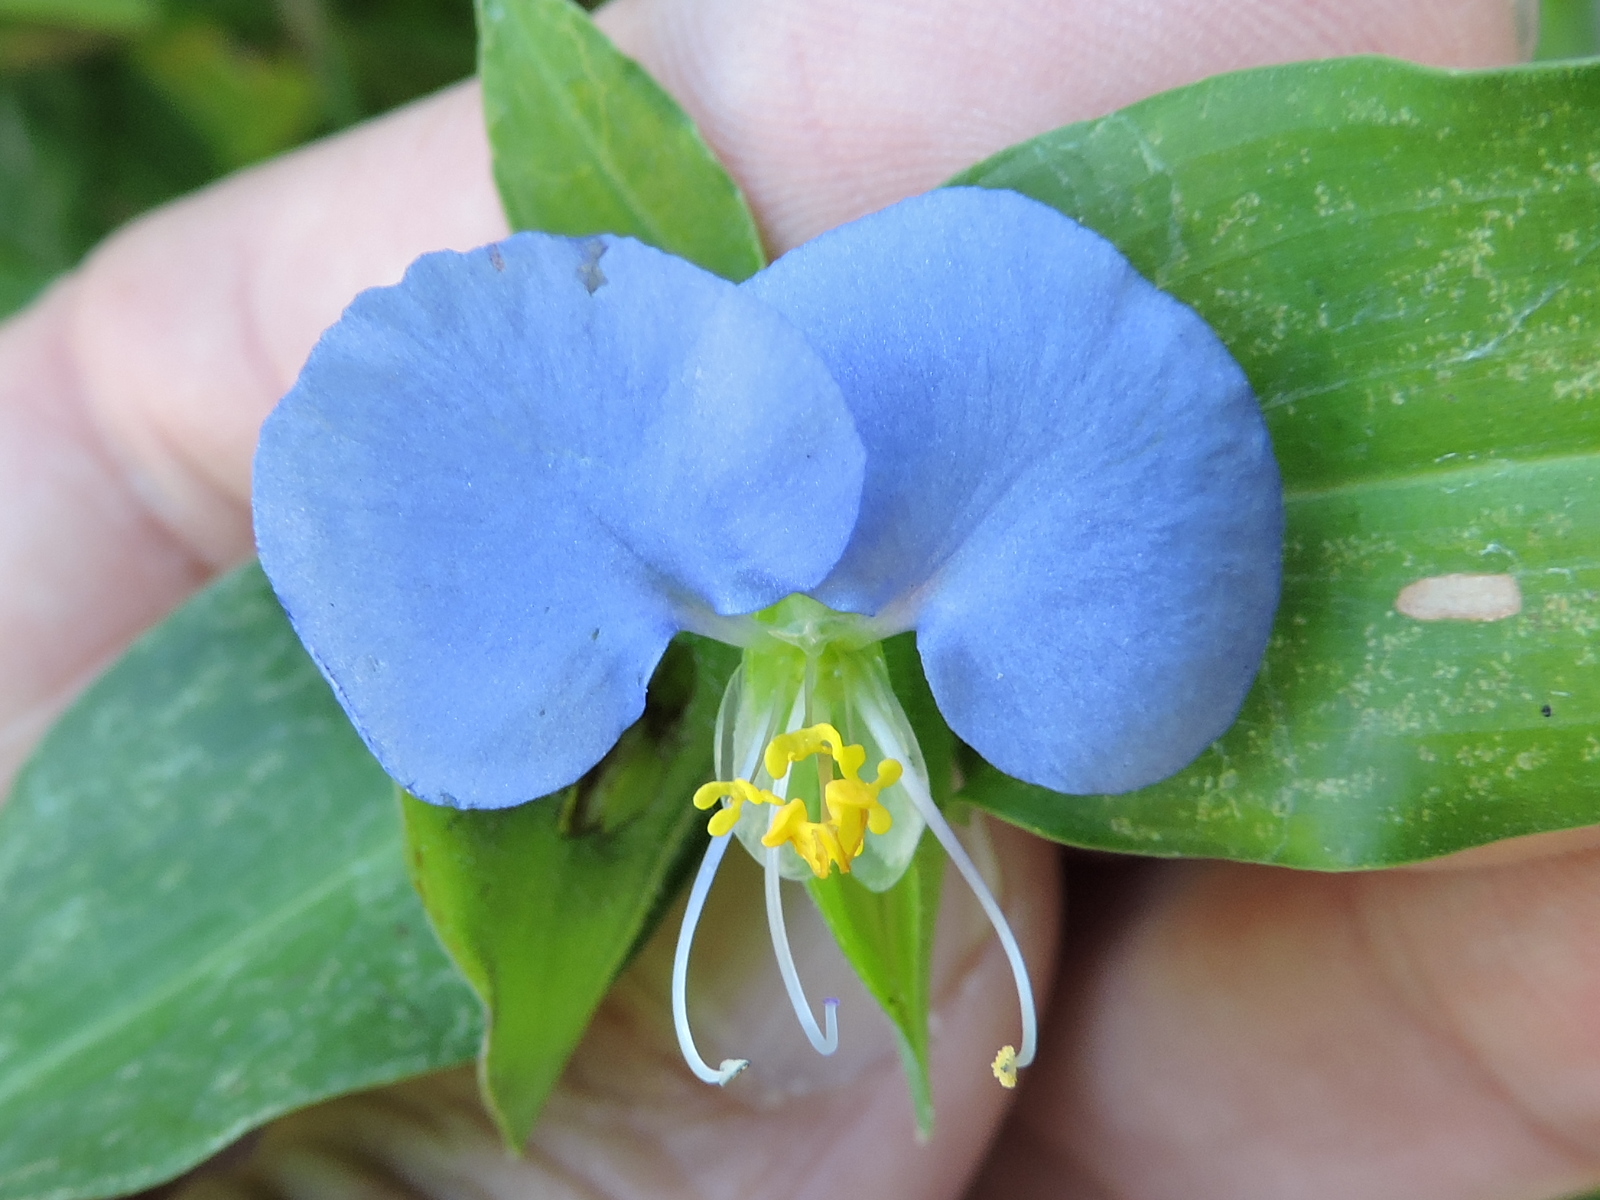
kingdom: Plantae
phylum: Tracheophyta
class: Liliopsida
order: Commelinales
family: Commelinaceae
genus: Commelina
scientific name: Commelina erecta
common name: Blousel blommetjie
